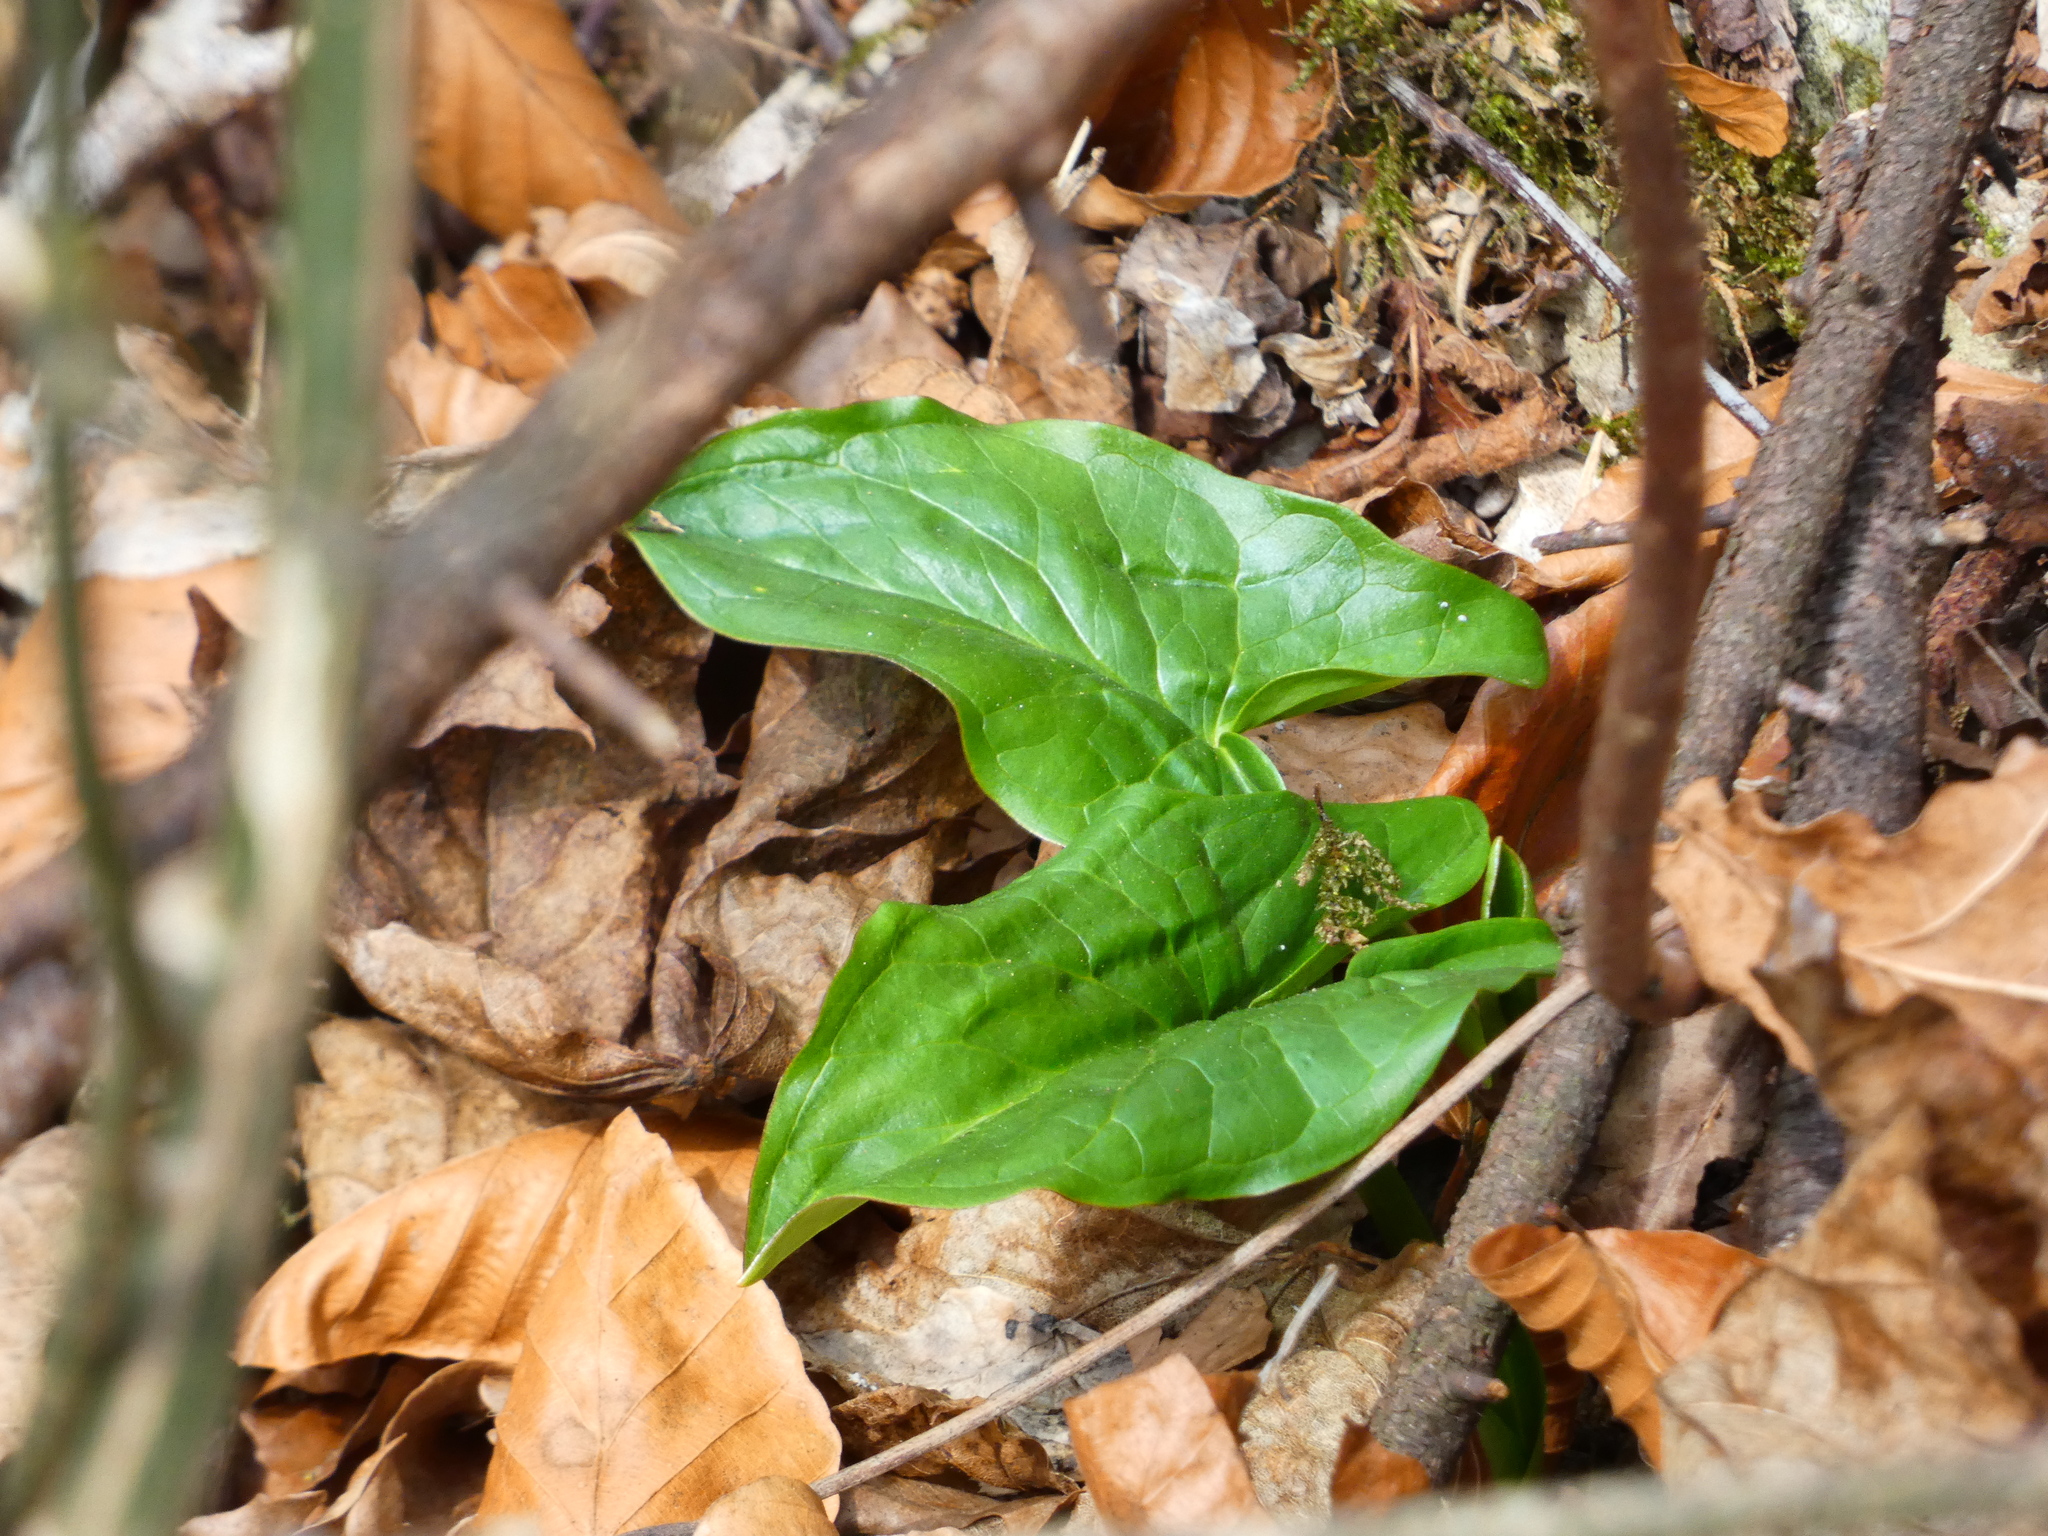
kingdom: Plantae
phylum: Tracheophyta
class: Liliopsida
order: Alismatales
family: Araceae
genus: Arum
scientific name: Arum maculatum
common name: Lords-and-ladies
